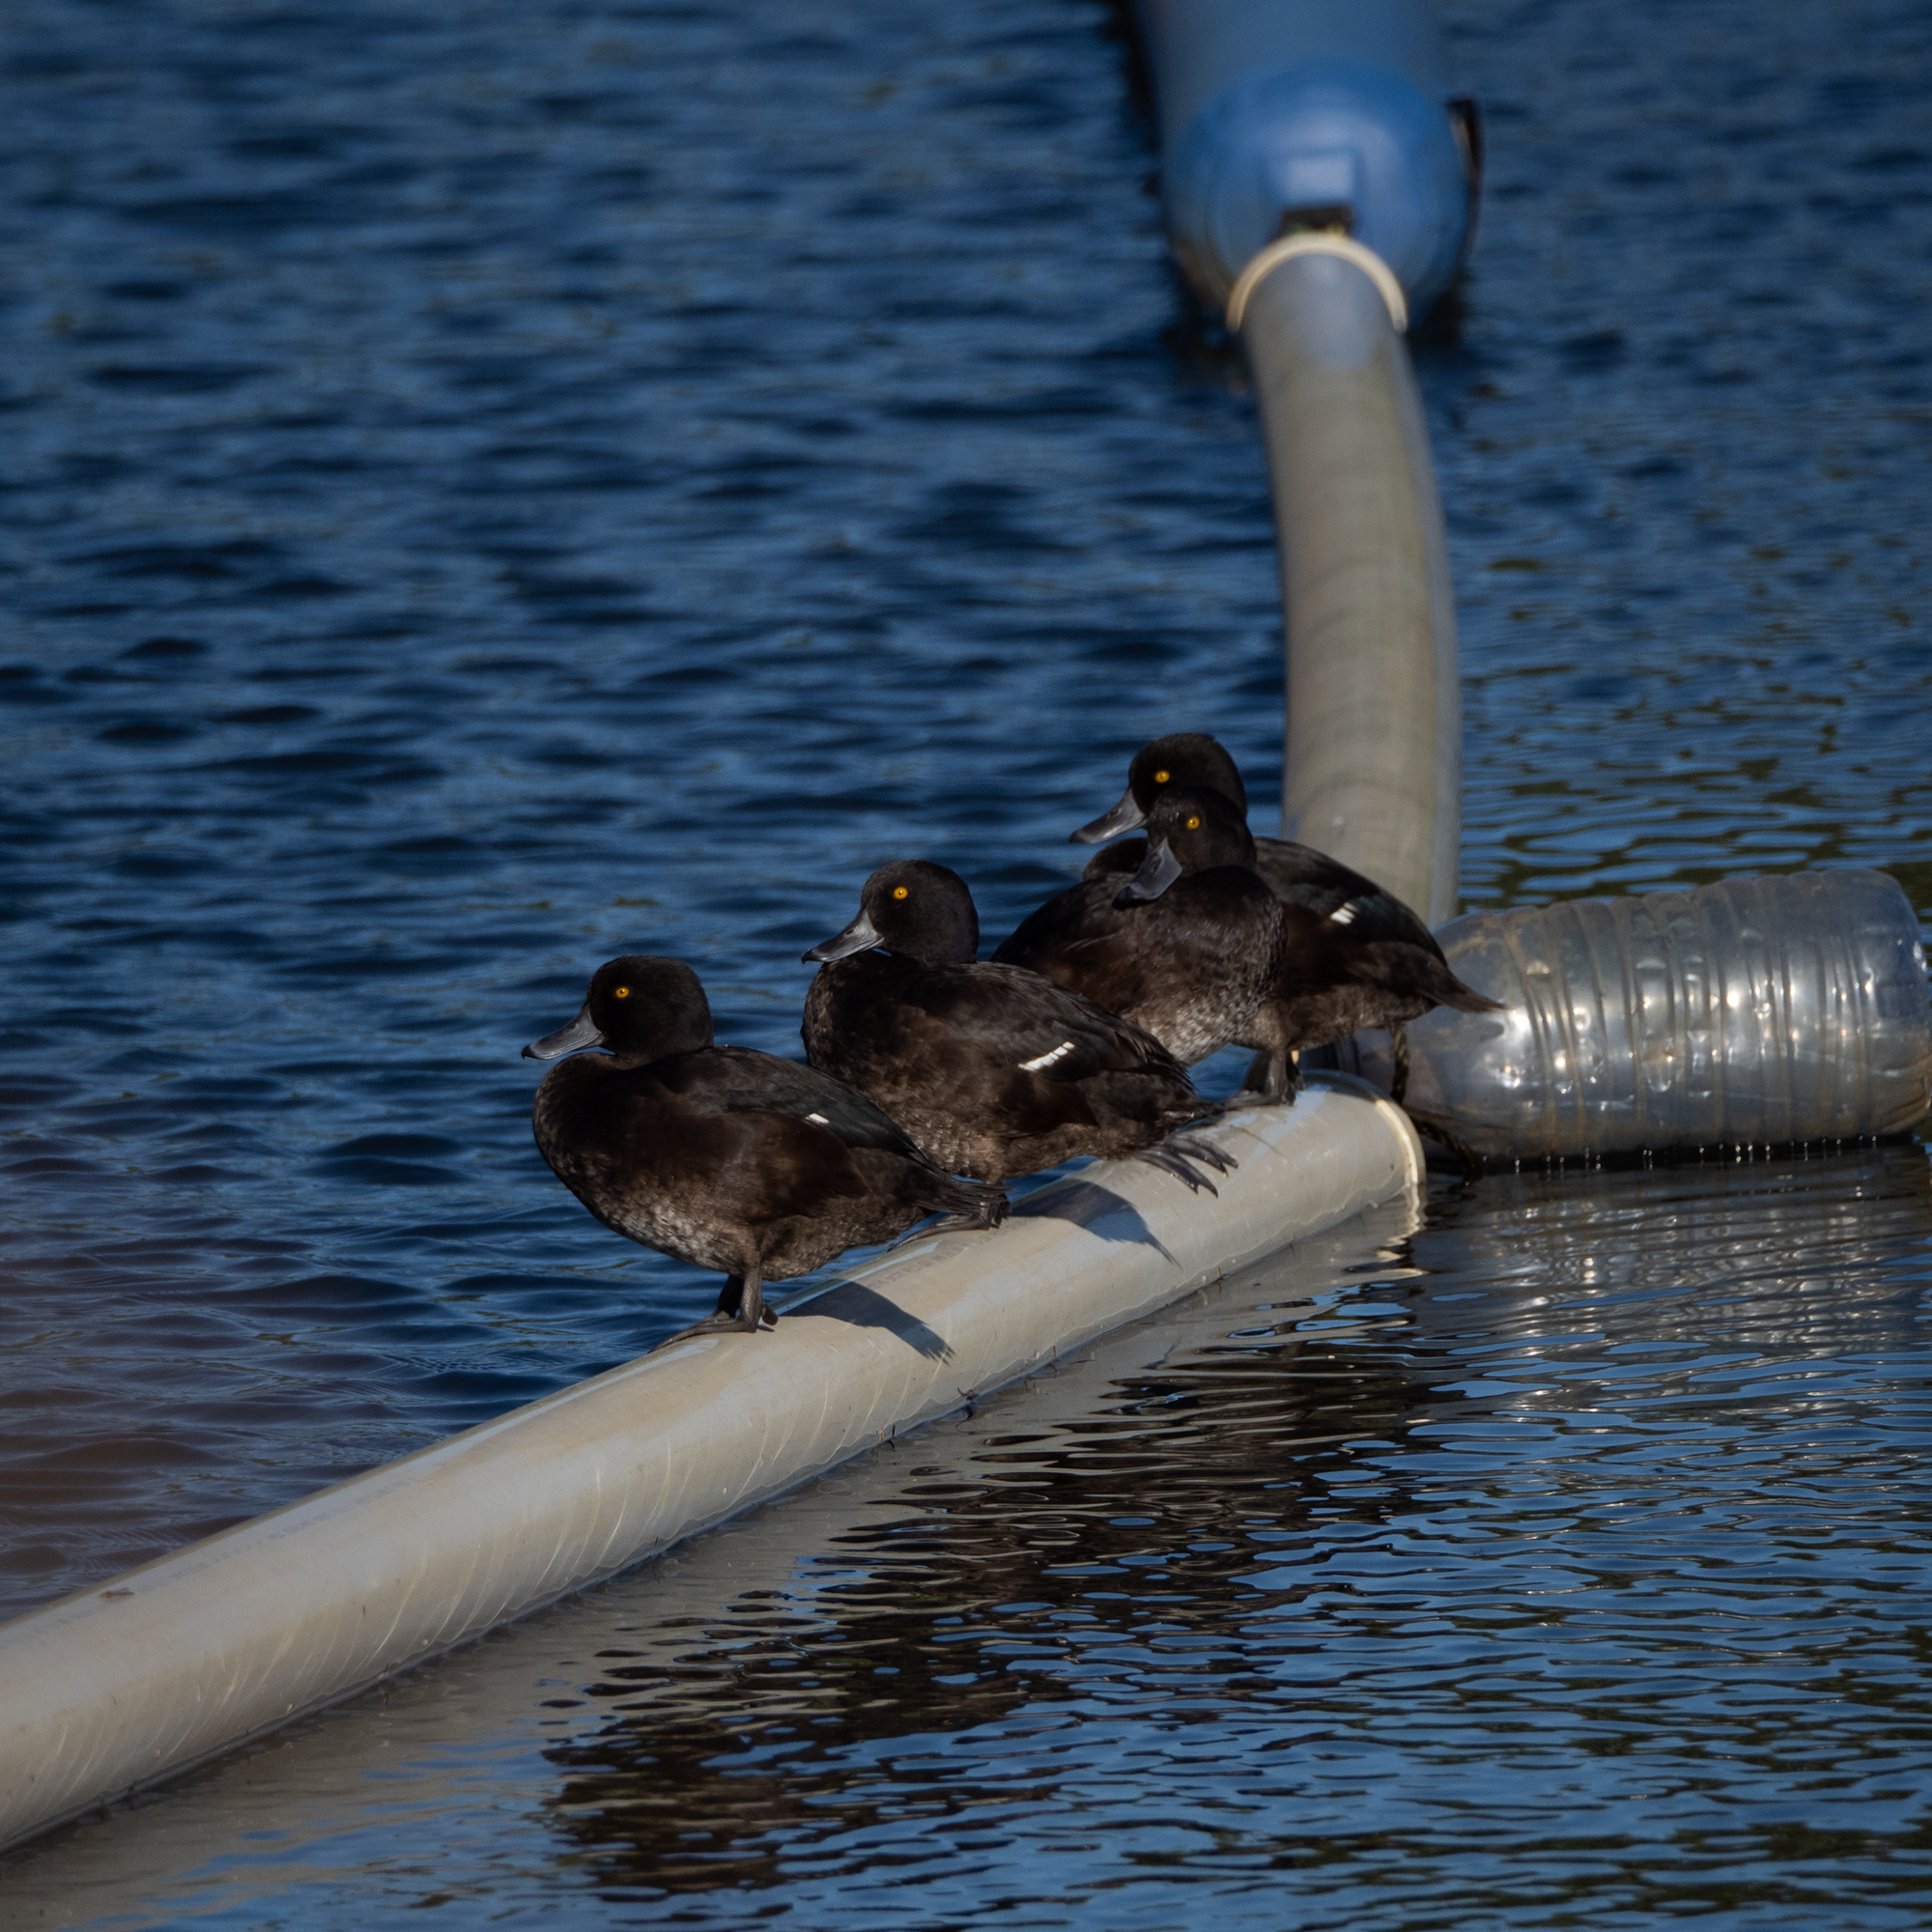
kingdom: Animalia
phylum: Chordata
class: Aves
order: Anseriformes
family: Anatidae
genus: Aythya
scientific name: Aythya novaeseelandiae
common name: New zealand scaup
